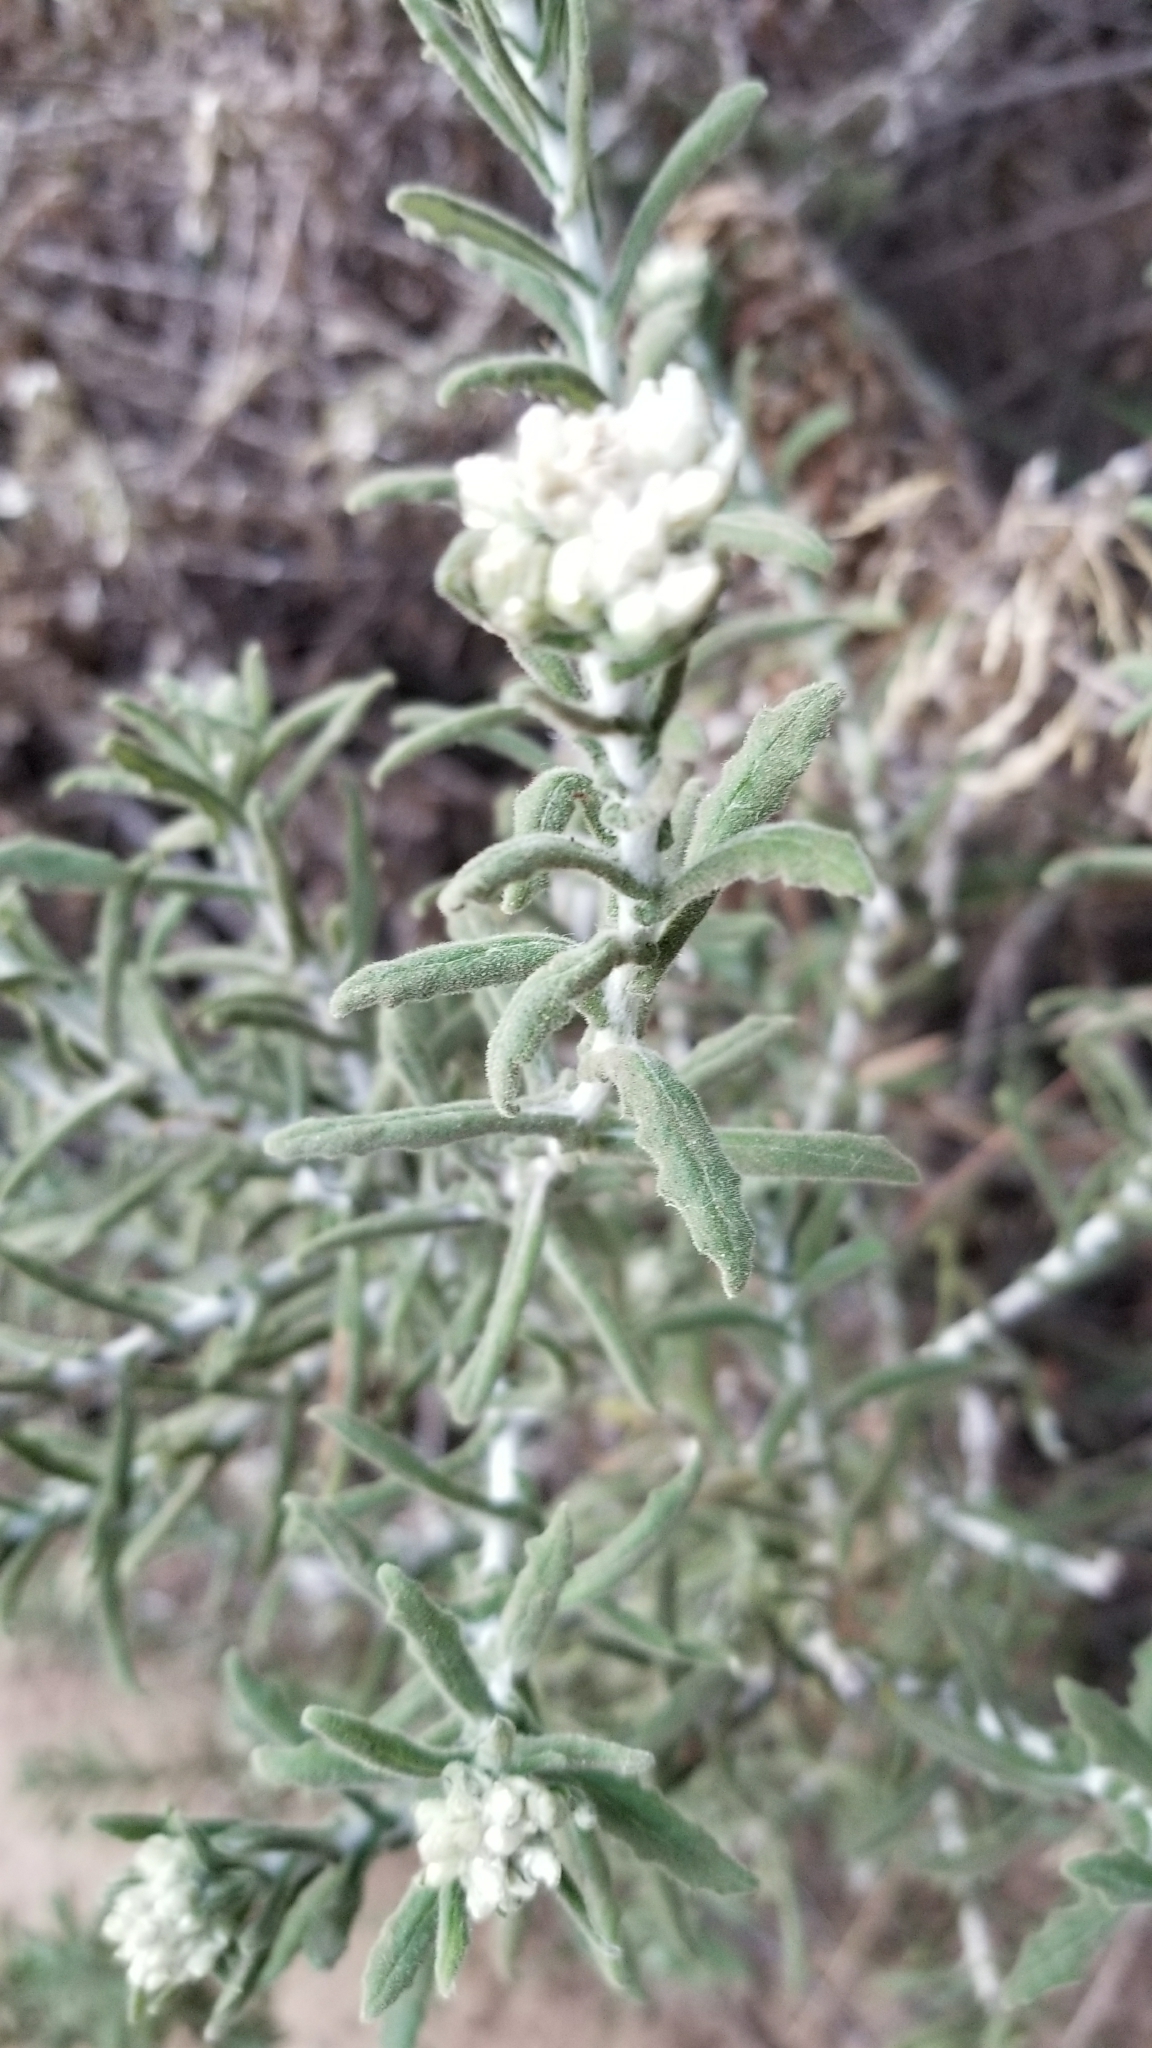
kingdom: Plantae
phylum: Tracheophyta
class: Magnoliopsida
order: Asterales
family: Asteraceae
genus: Pseudognaphalium
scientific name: Pseudognaphalium biolettii
